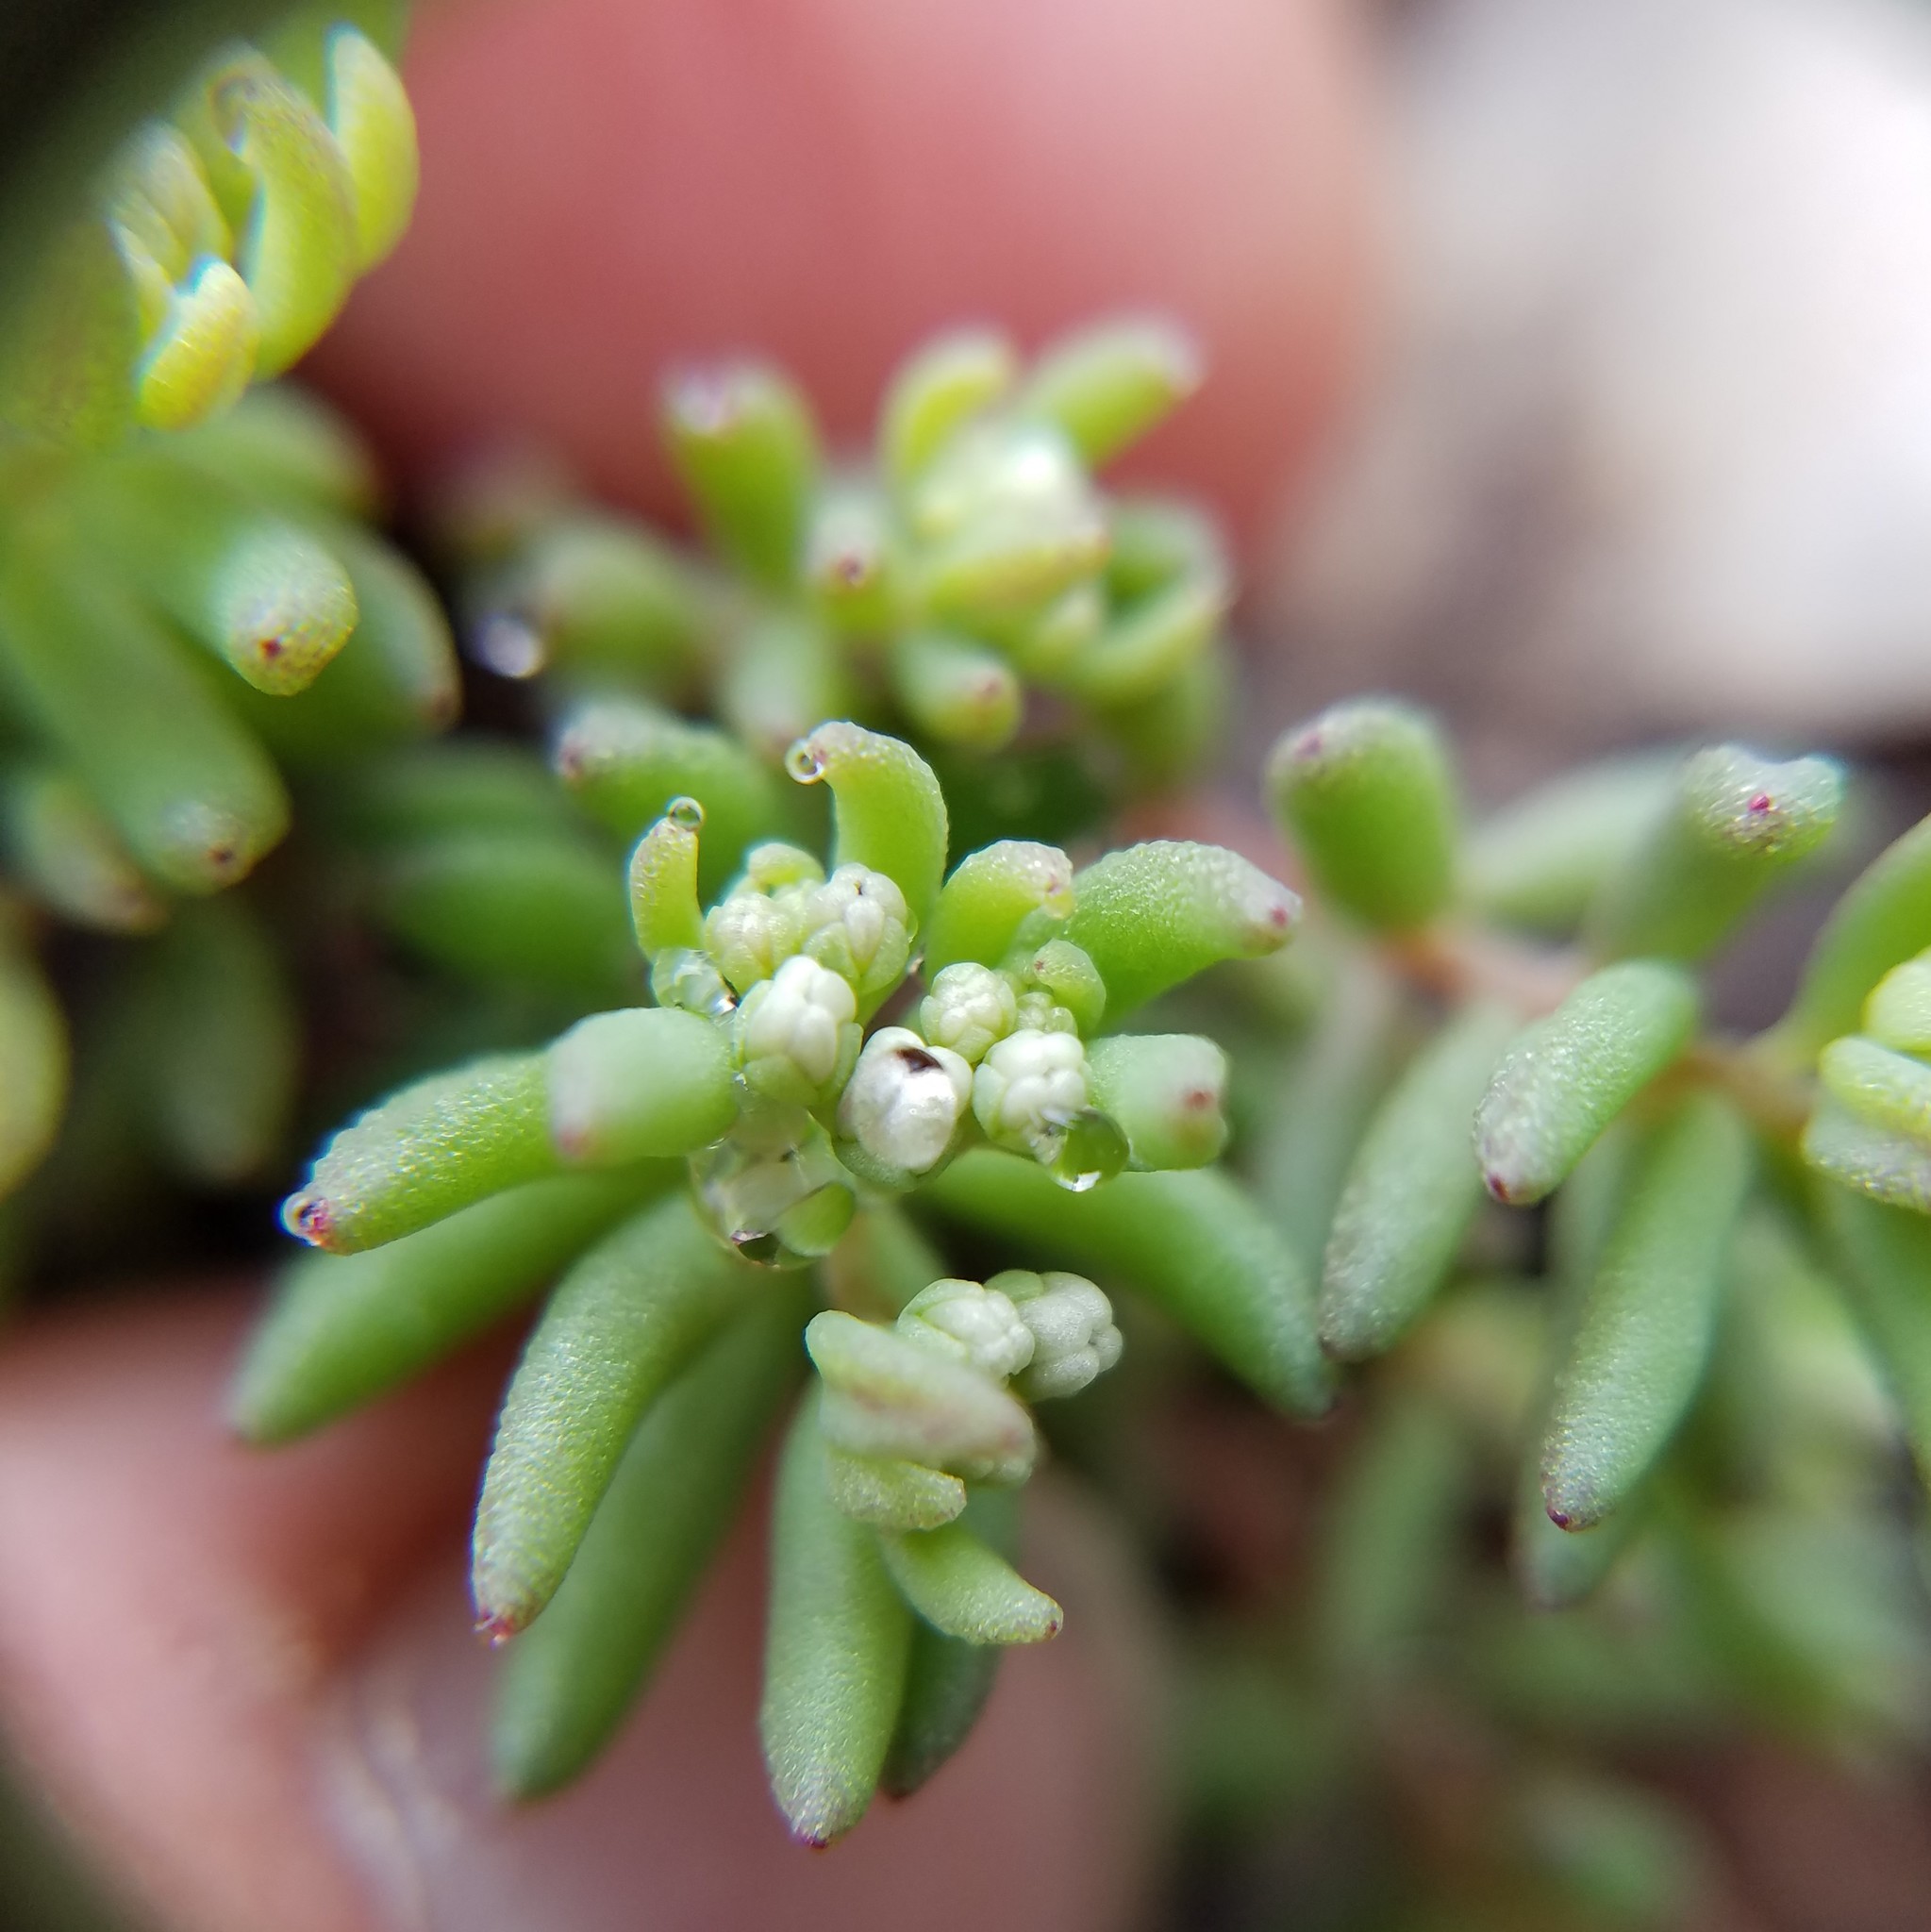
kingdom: Plantae
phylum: Tracheophyta
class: Magnoliopsida
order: Saxifragales
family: Crassulaceae
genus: Sedum
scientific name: Sedum pusillum
